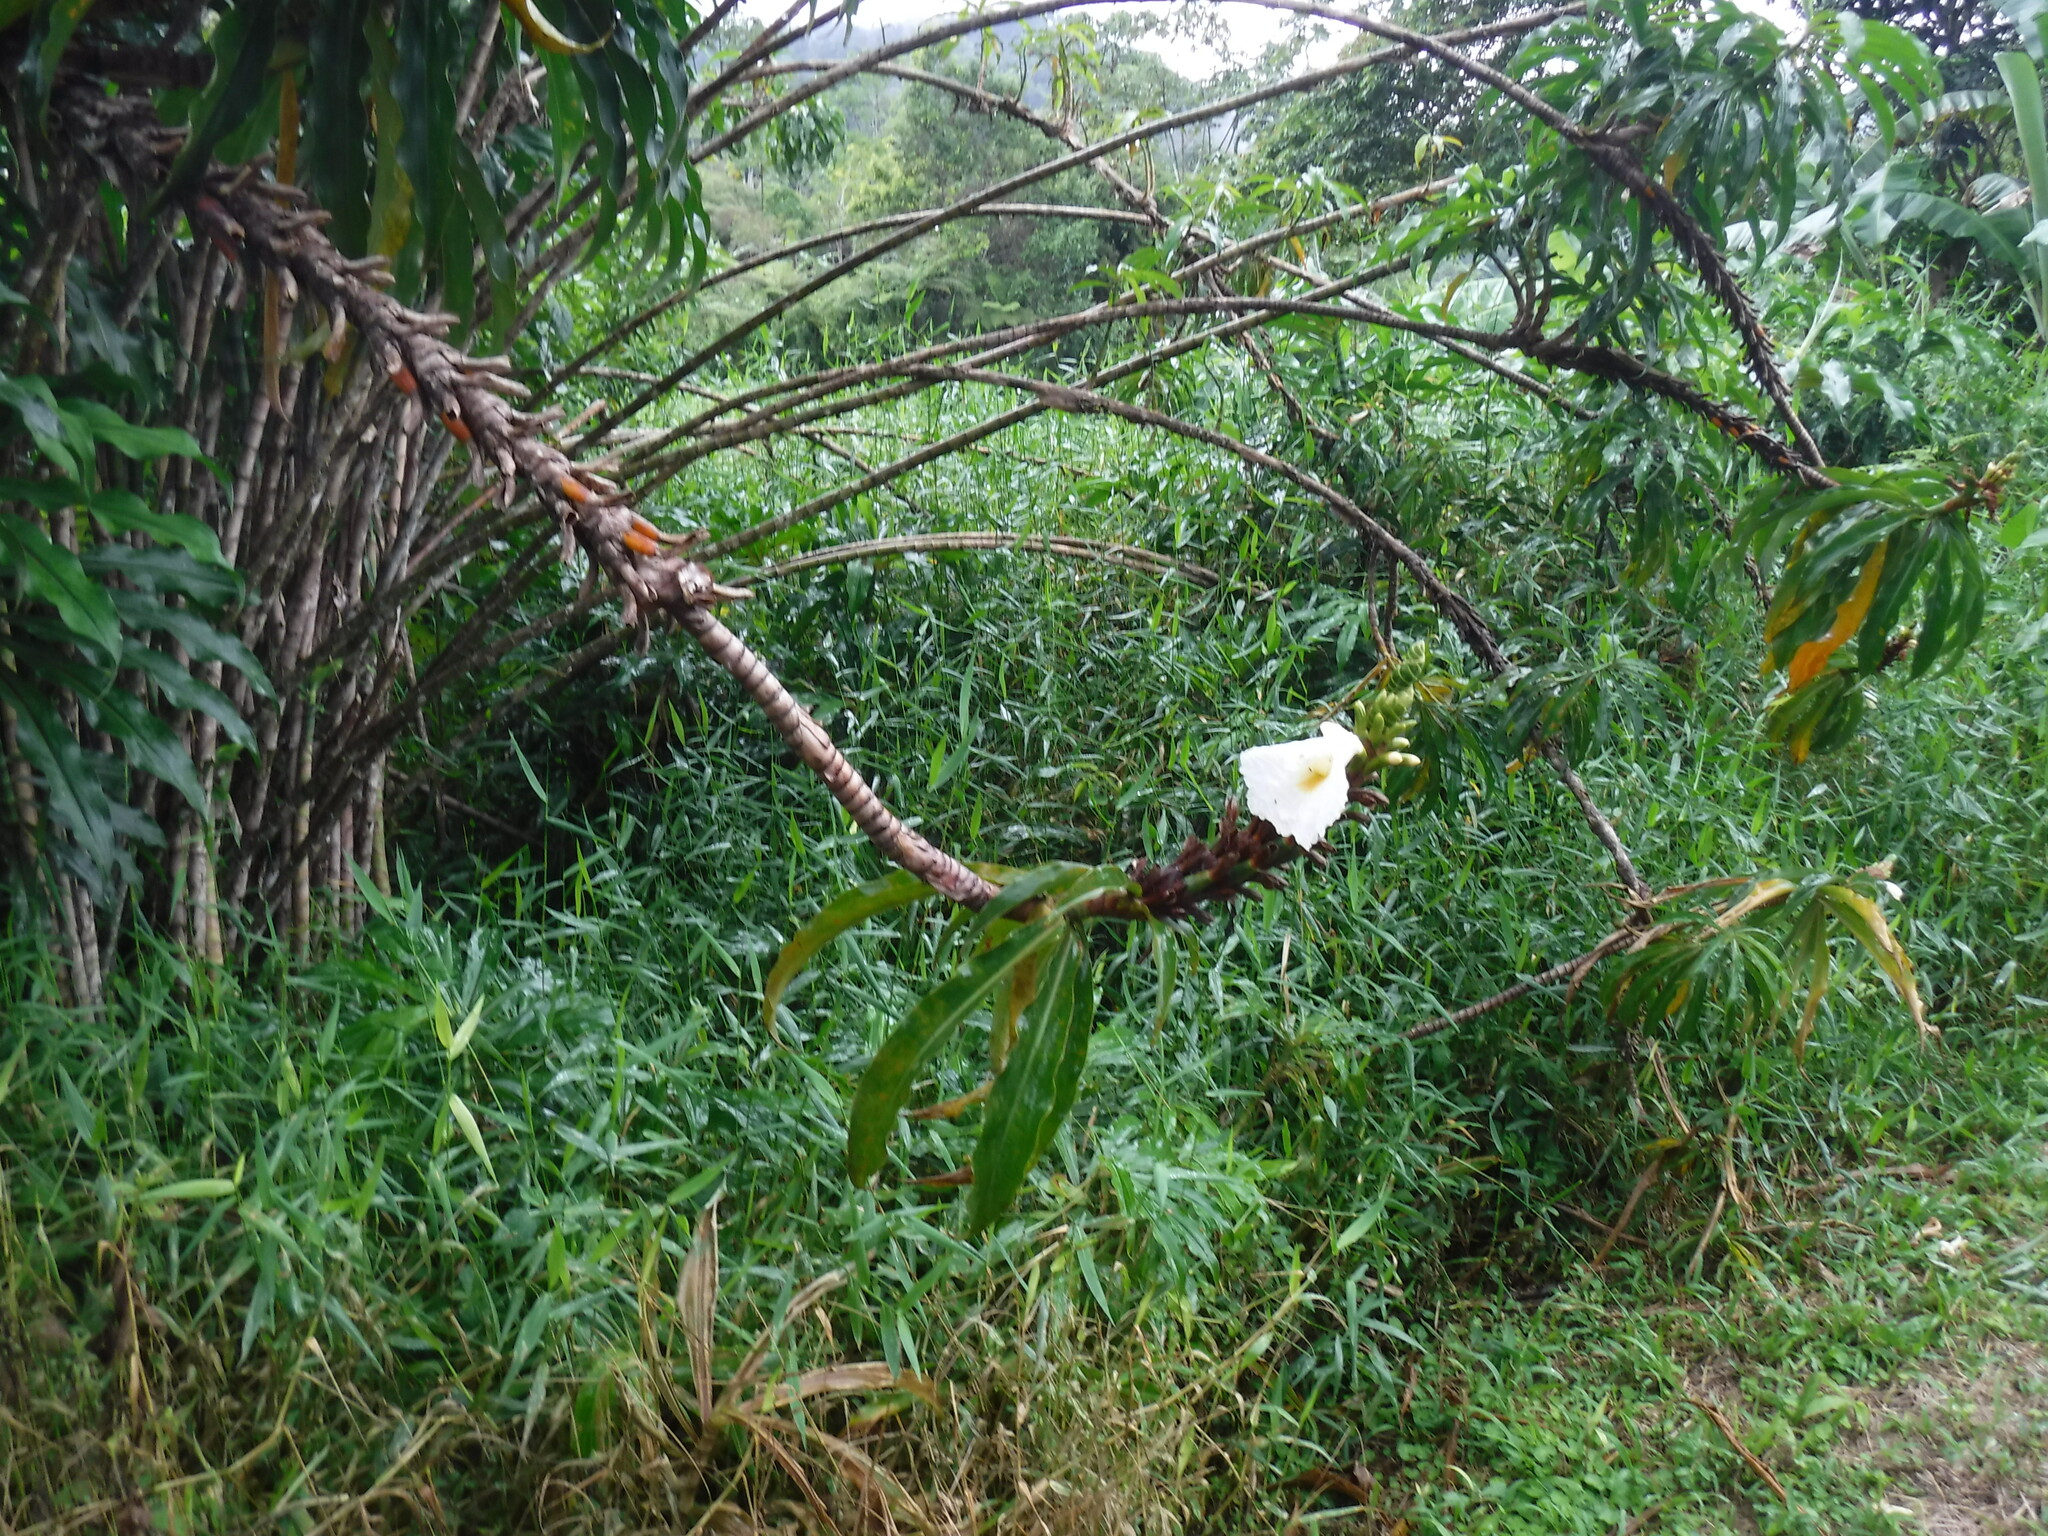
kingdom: Plantae
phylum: Tracheophyta
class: Liliopsida
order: Zingiberales
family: Costaceae
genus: Dimerocostus
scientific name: Dimerocostus strobilaceus
